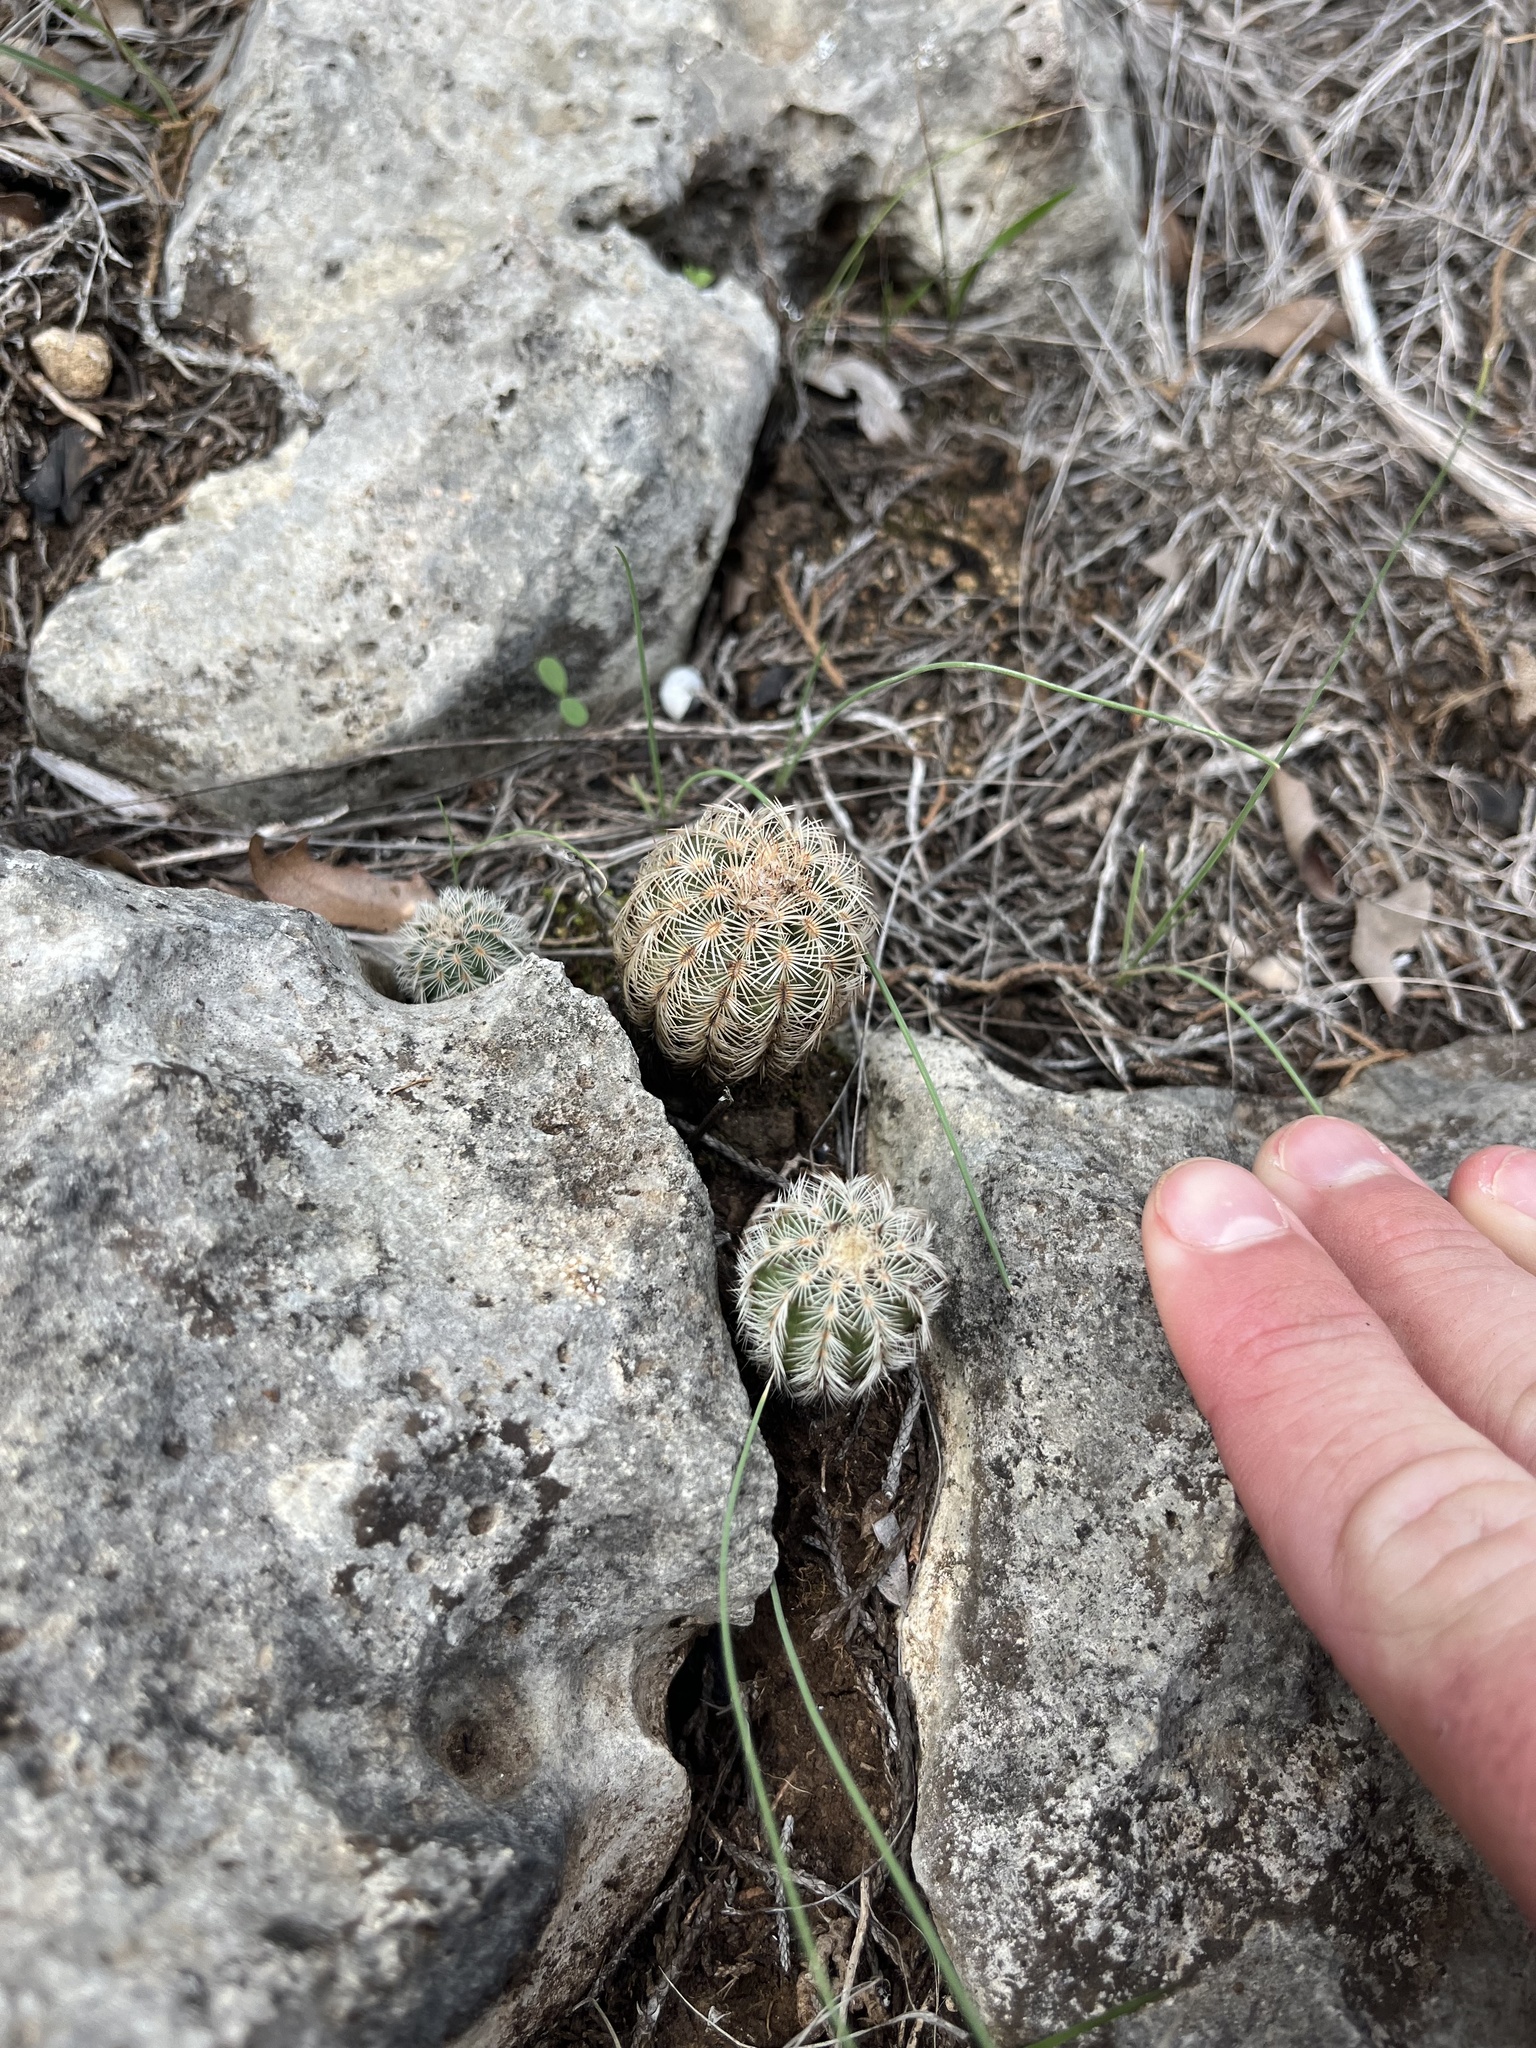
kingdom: Plantae
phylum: Tracheophyta
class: Magnoliopsida
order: Caryophyllales
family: Cactaceae
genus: Echinocereus
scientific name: Echinocereus reichenbachii
